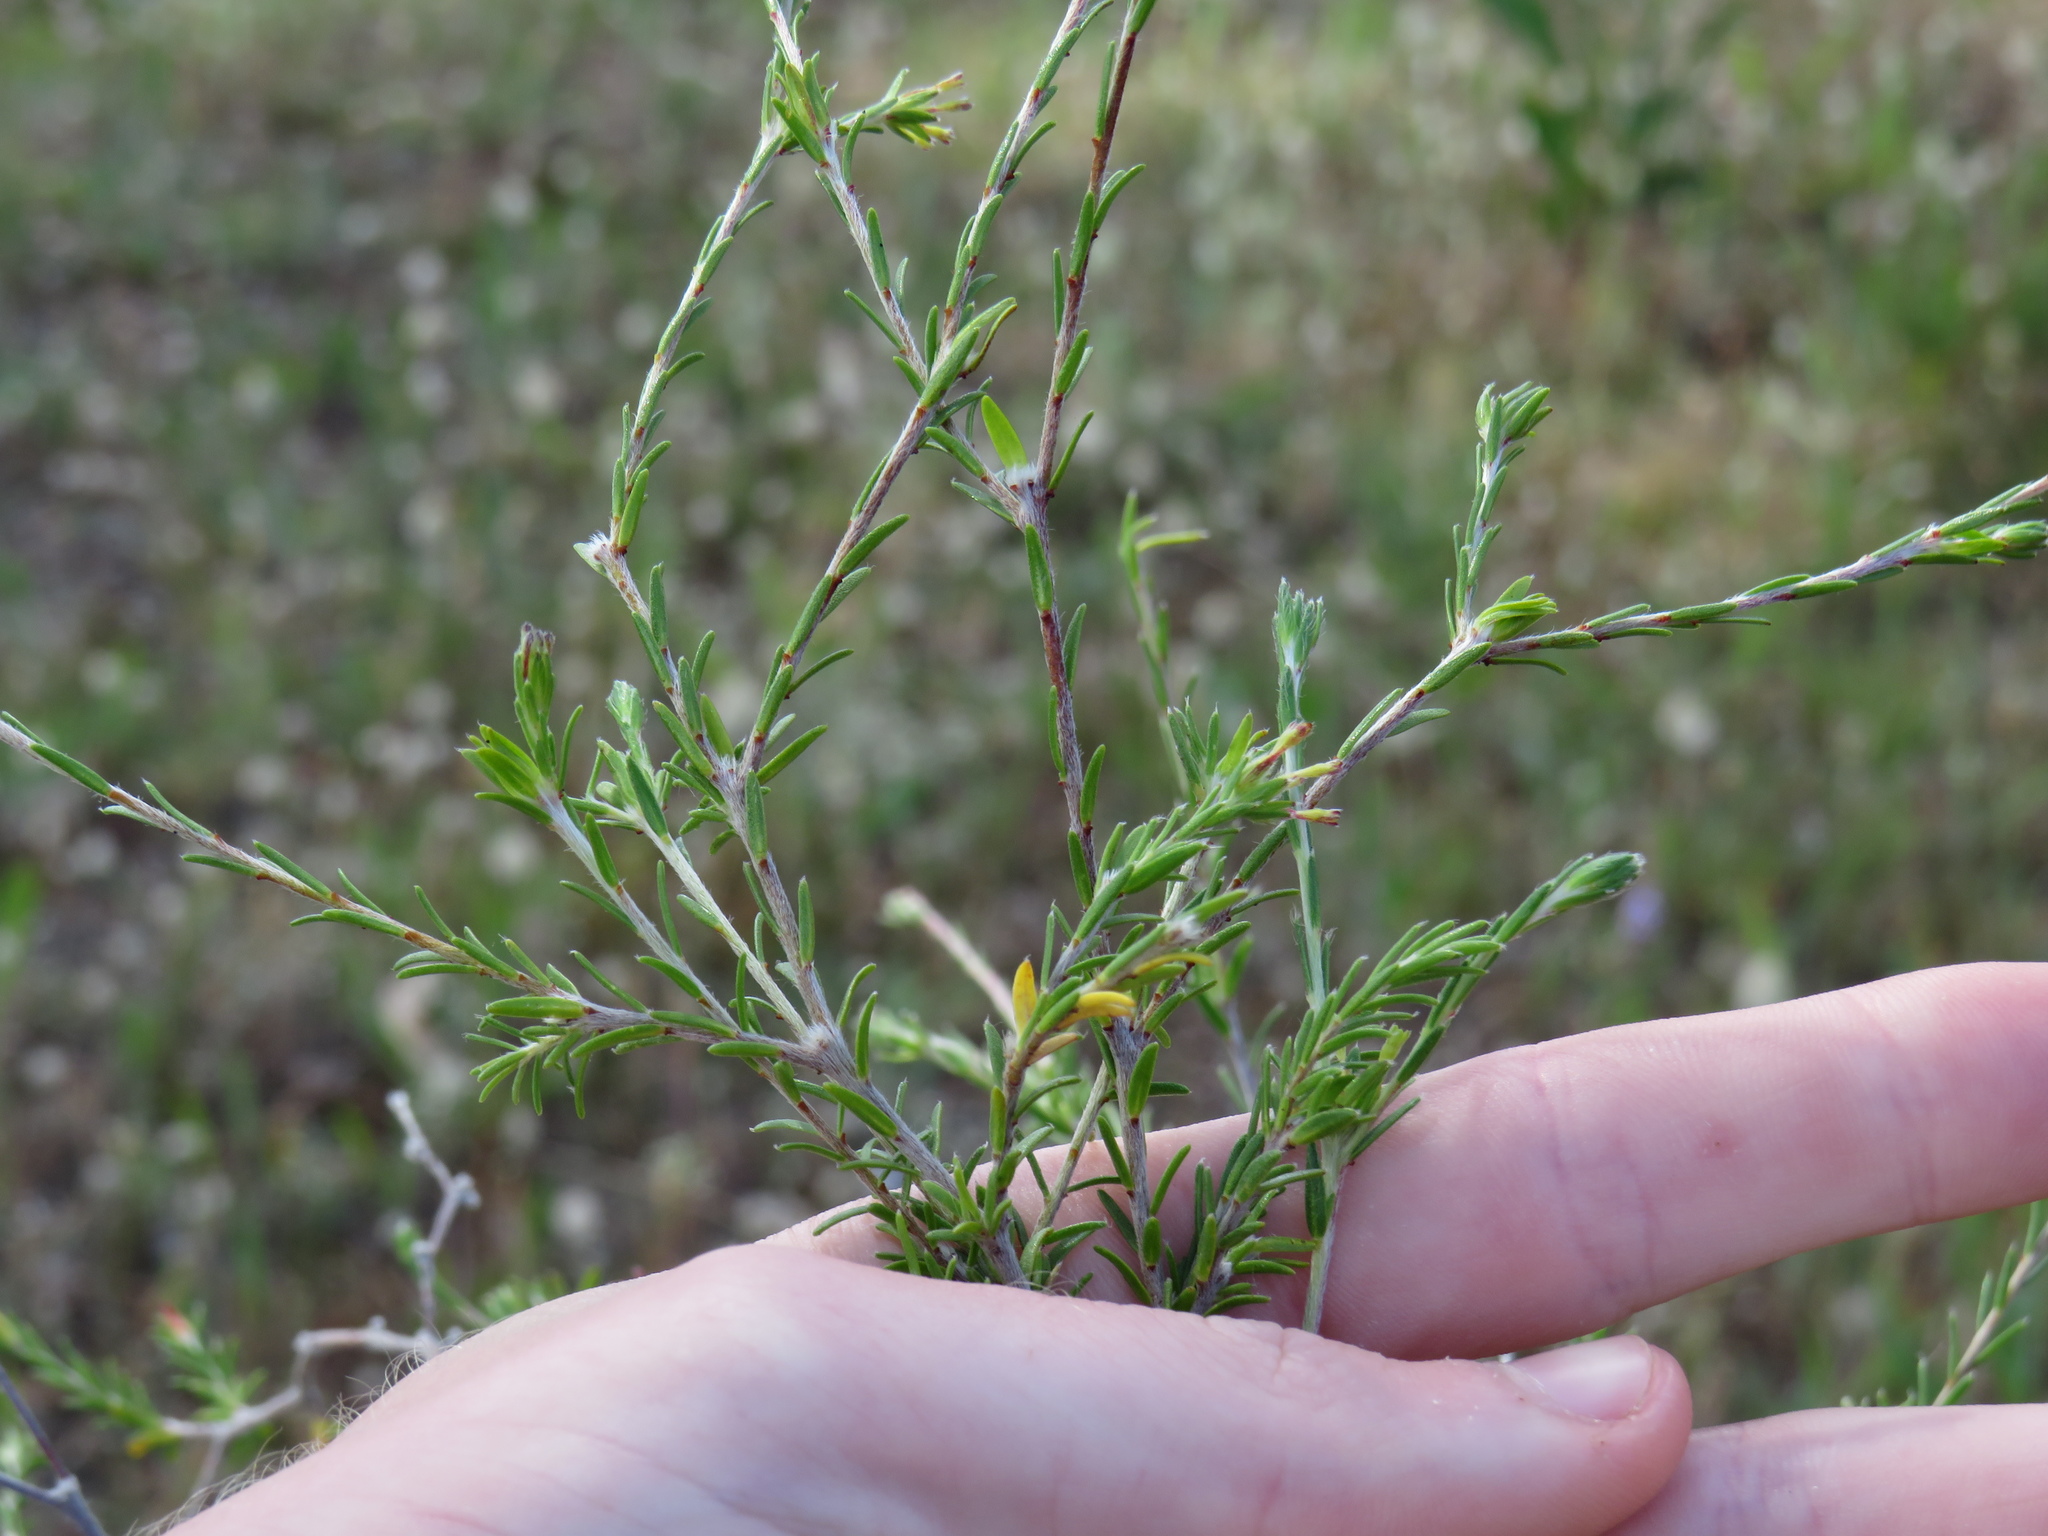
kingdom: Plantae
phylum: Tracheophyta
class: Magnoliopsida
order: Malvales
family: Thymelaeaceae
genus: Gnidia
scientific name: Gnidia laxa
